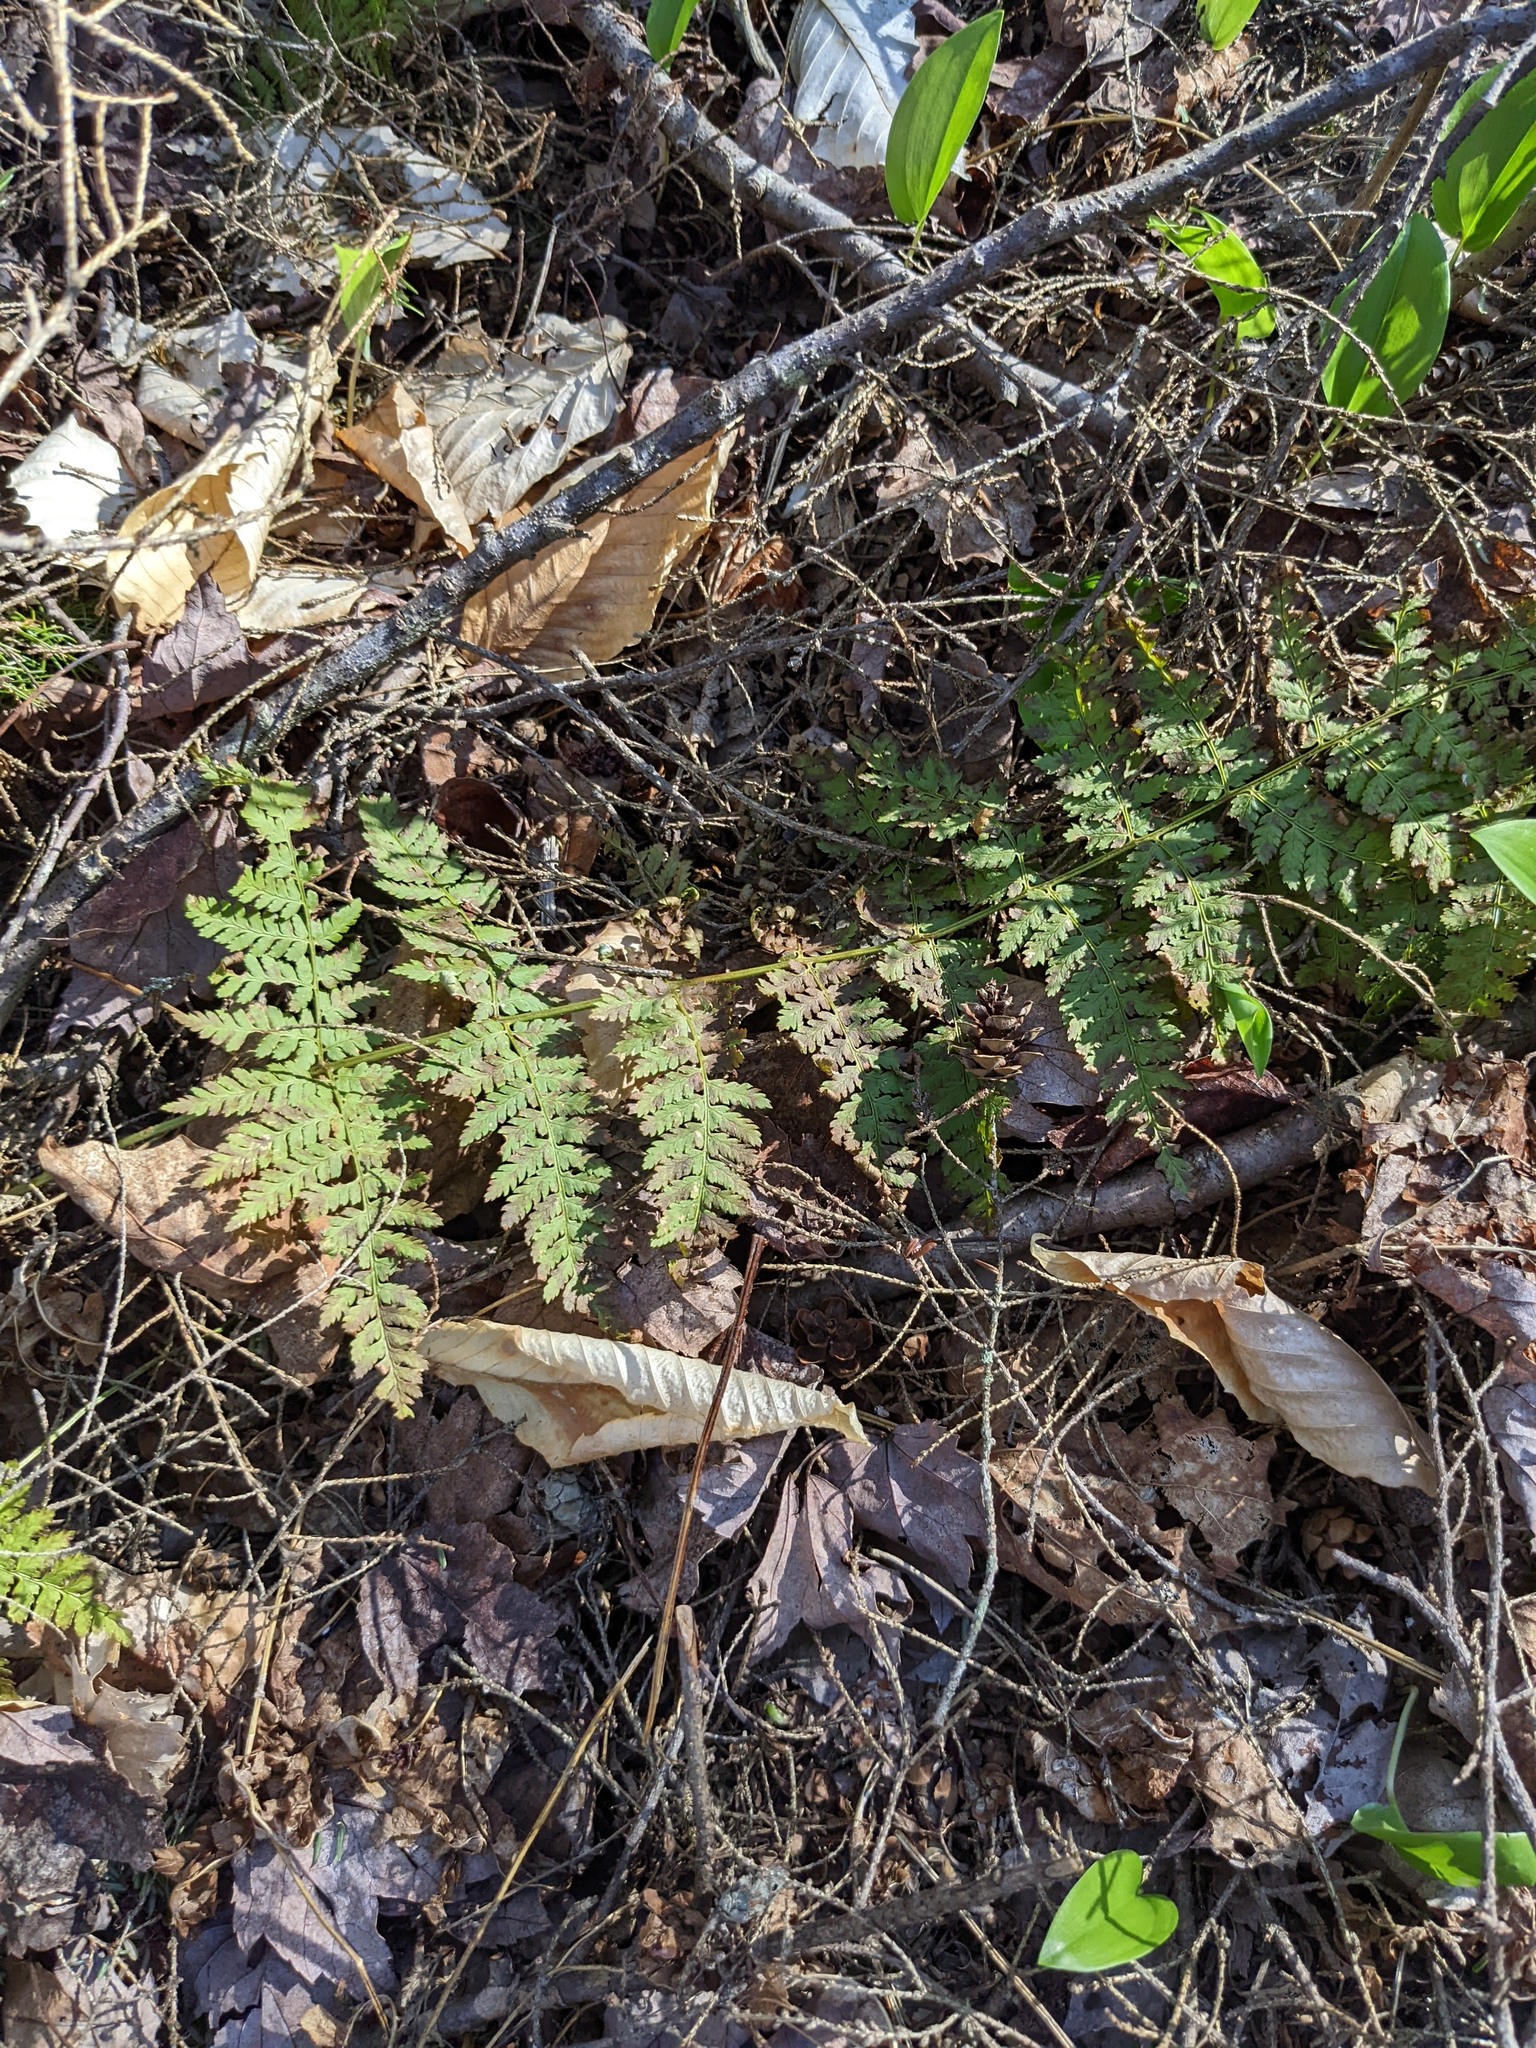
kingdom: Plantae
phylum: Tracheophyta
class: Polypodiopsida
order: Polypodiales
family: Dryopteridaceae
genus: Dryopteris
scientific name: Dryopteris intermedia
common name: Evergreen wood fern
